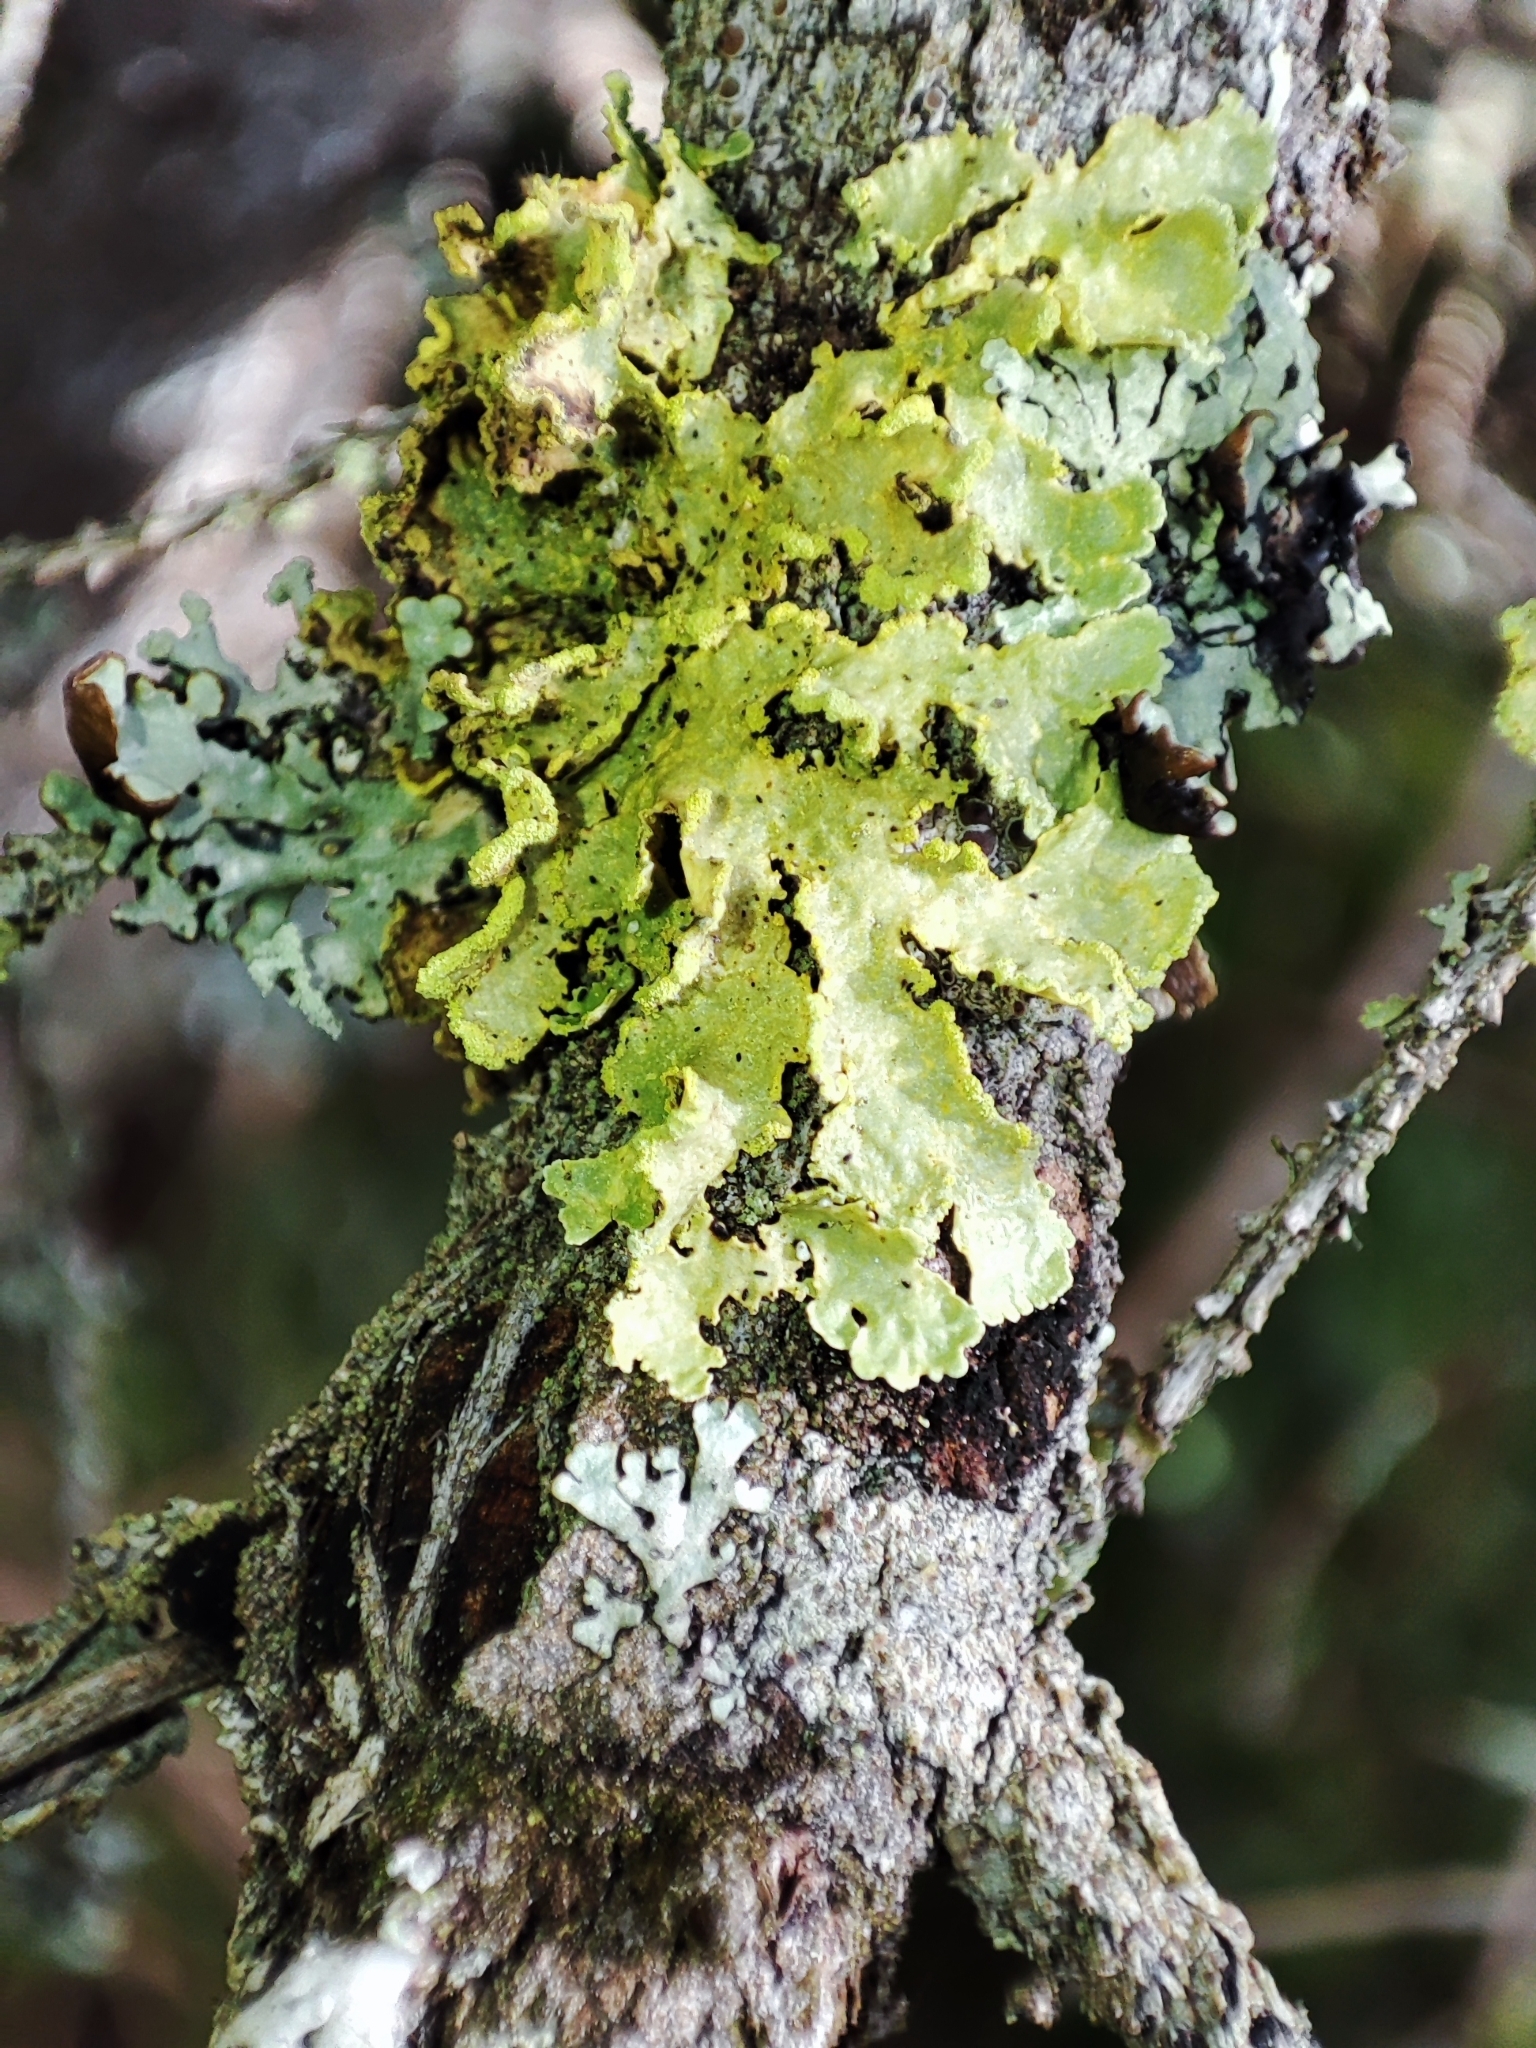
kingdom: Fungi
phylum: Ascomycota
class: Lecanoromycetes
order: Lecanorales
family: Parmeliaceae
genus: Vulpicida
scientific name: Vulpicida pinastri
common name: Powdered sunshine lichen
